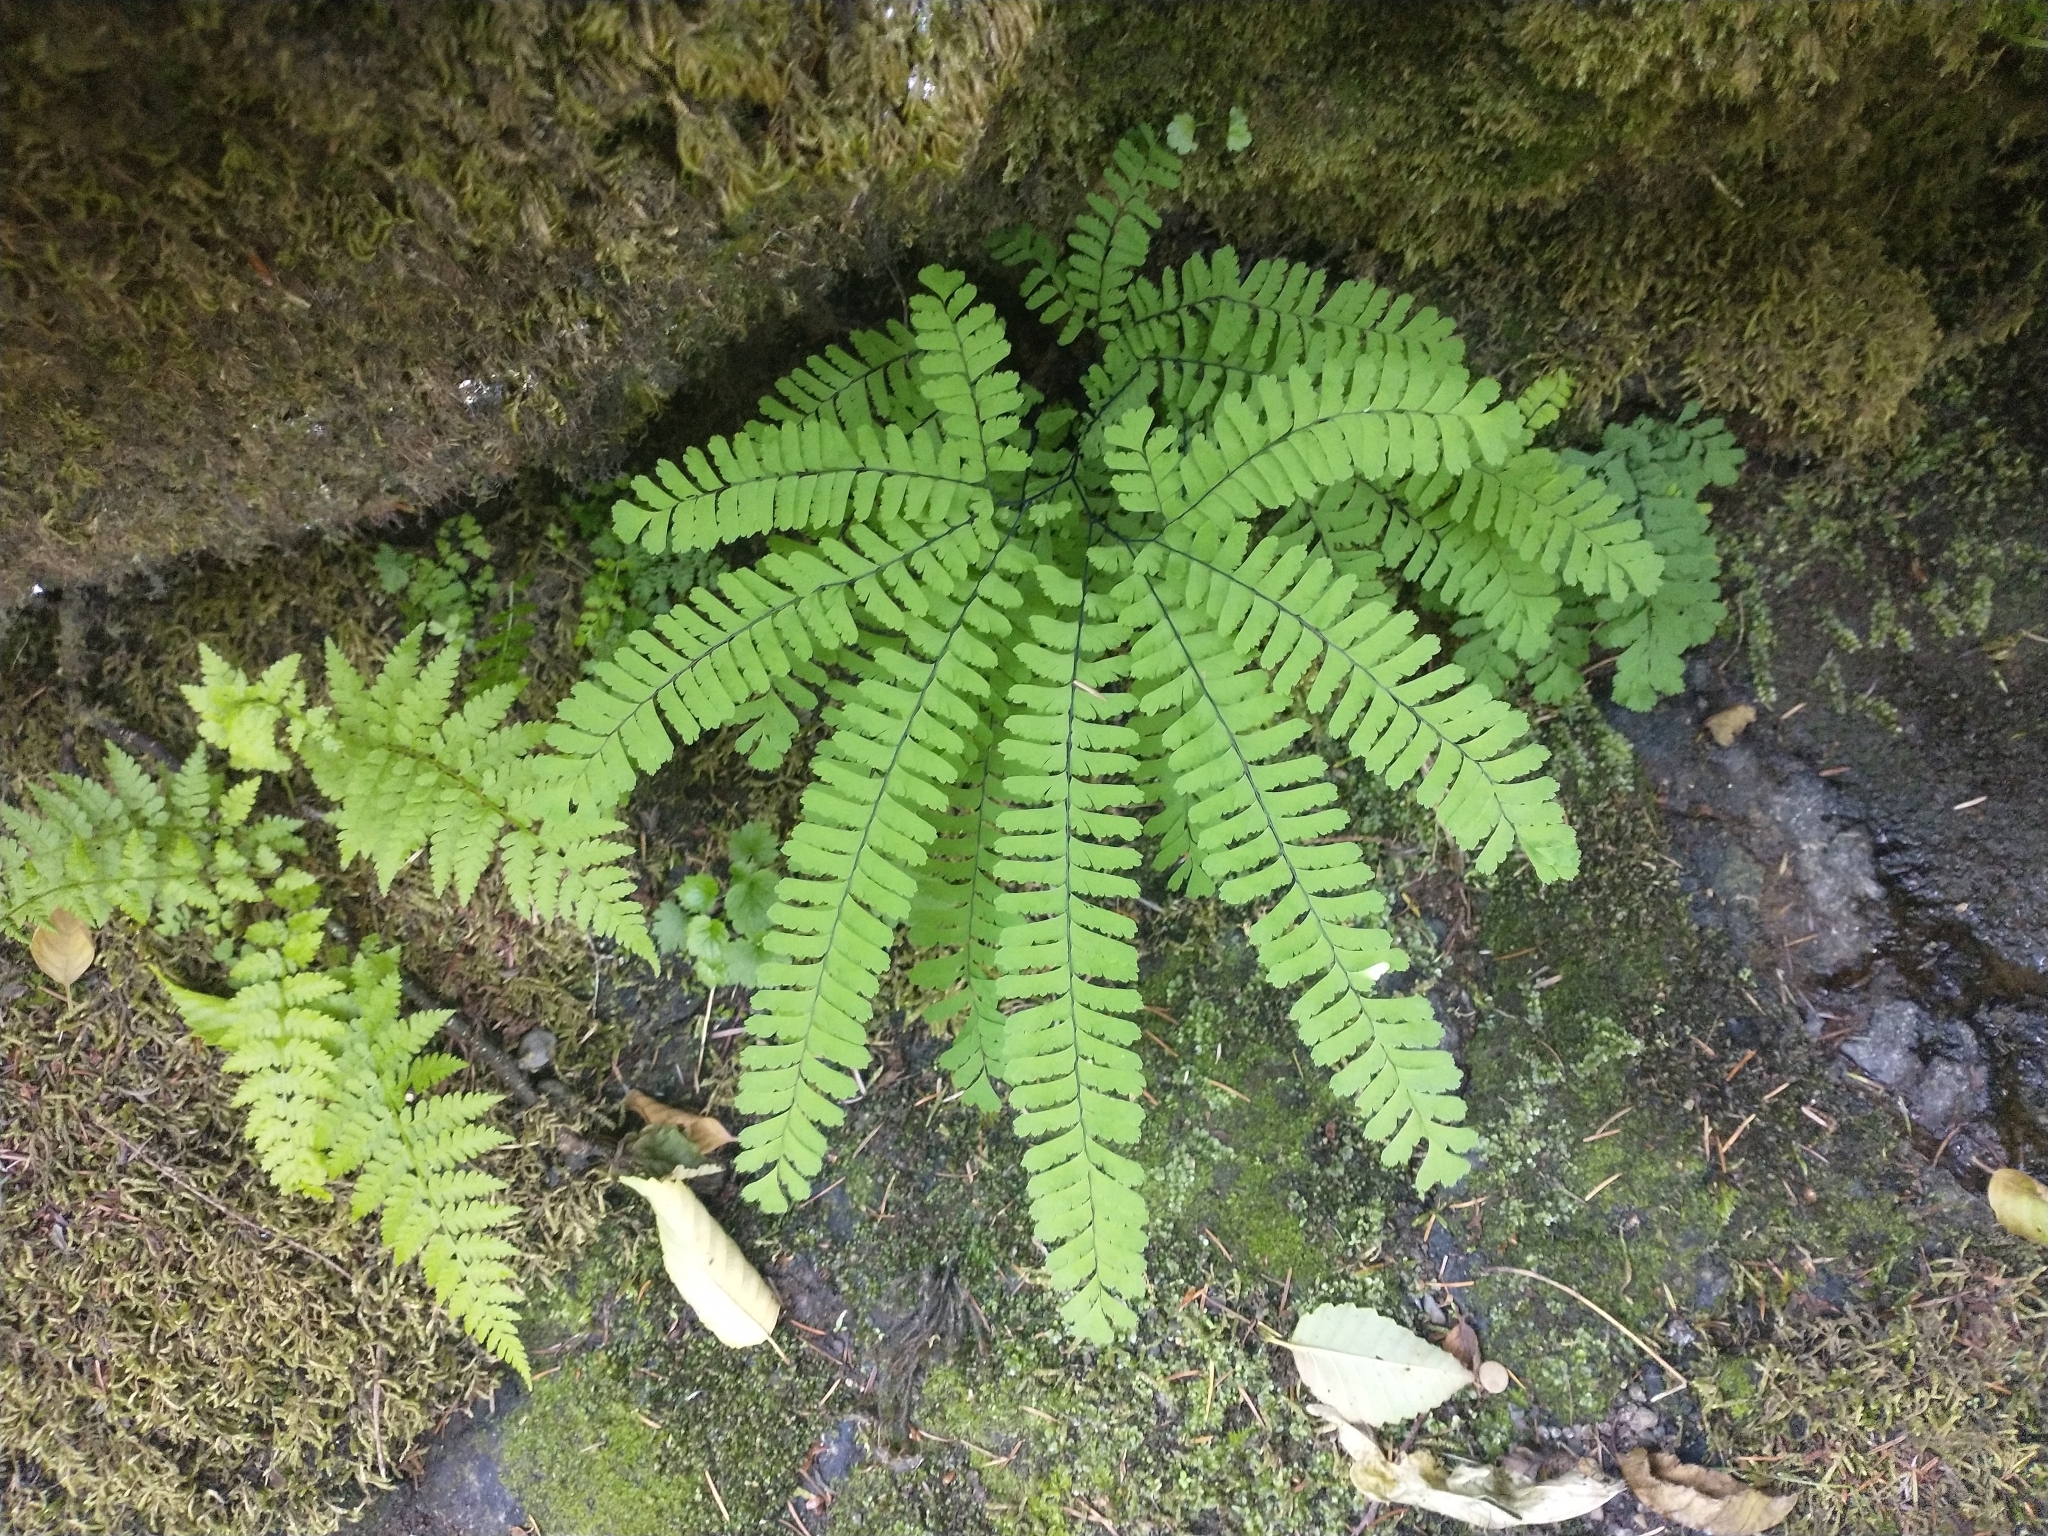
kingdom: Plantae
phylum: Tracheophyta
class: Polypodiopsida
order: Polypodiales
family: Pteridaceae
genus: Adiantum
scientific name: Adiantum aleuticum
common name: Aleutian maidenhair fern
